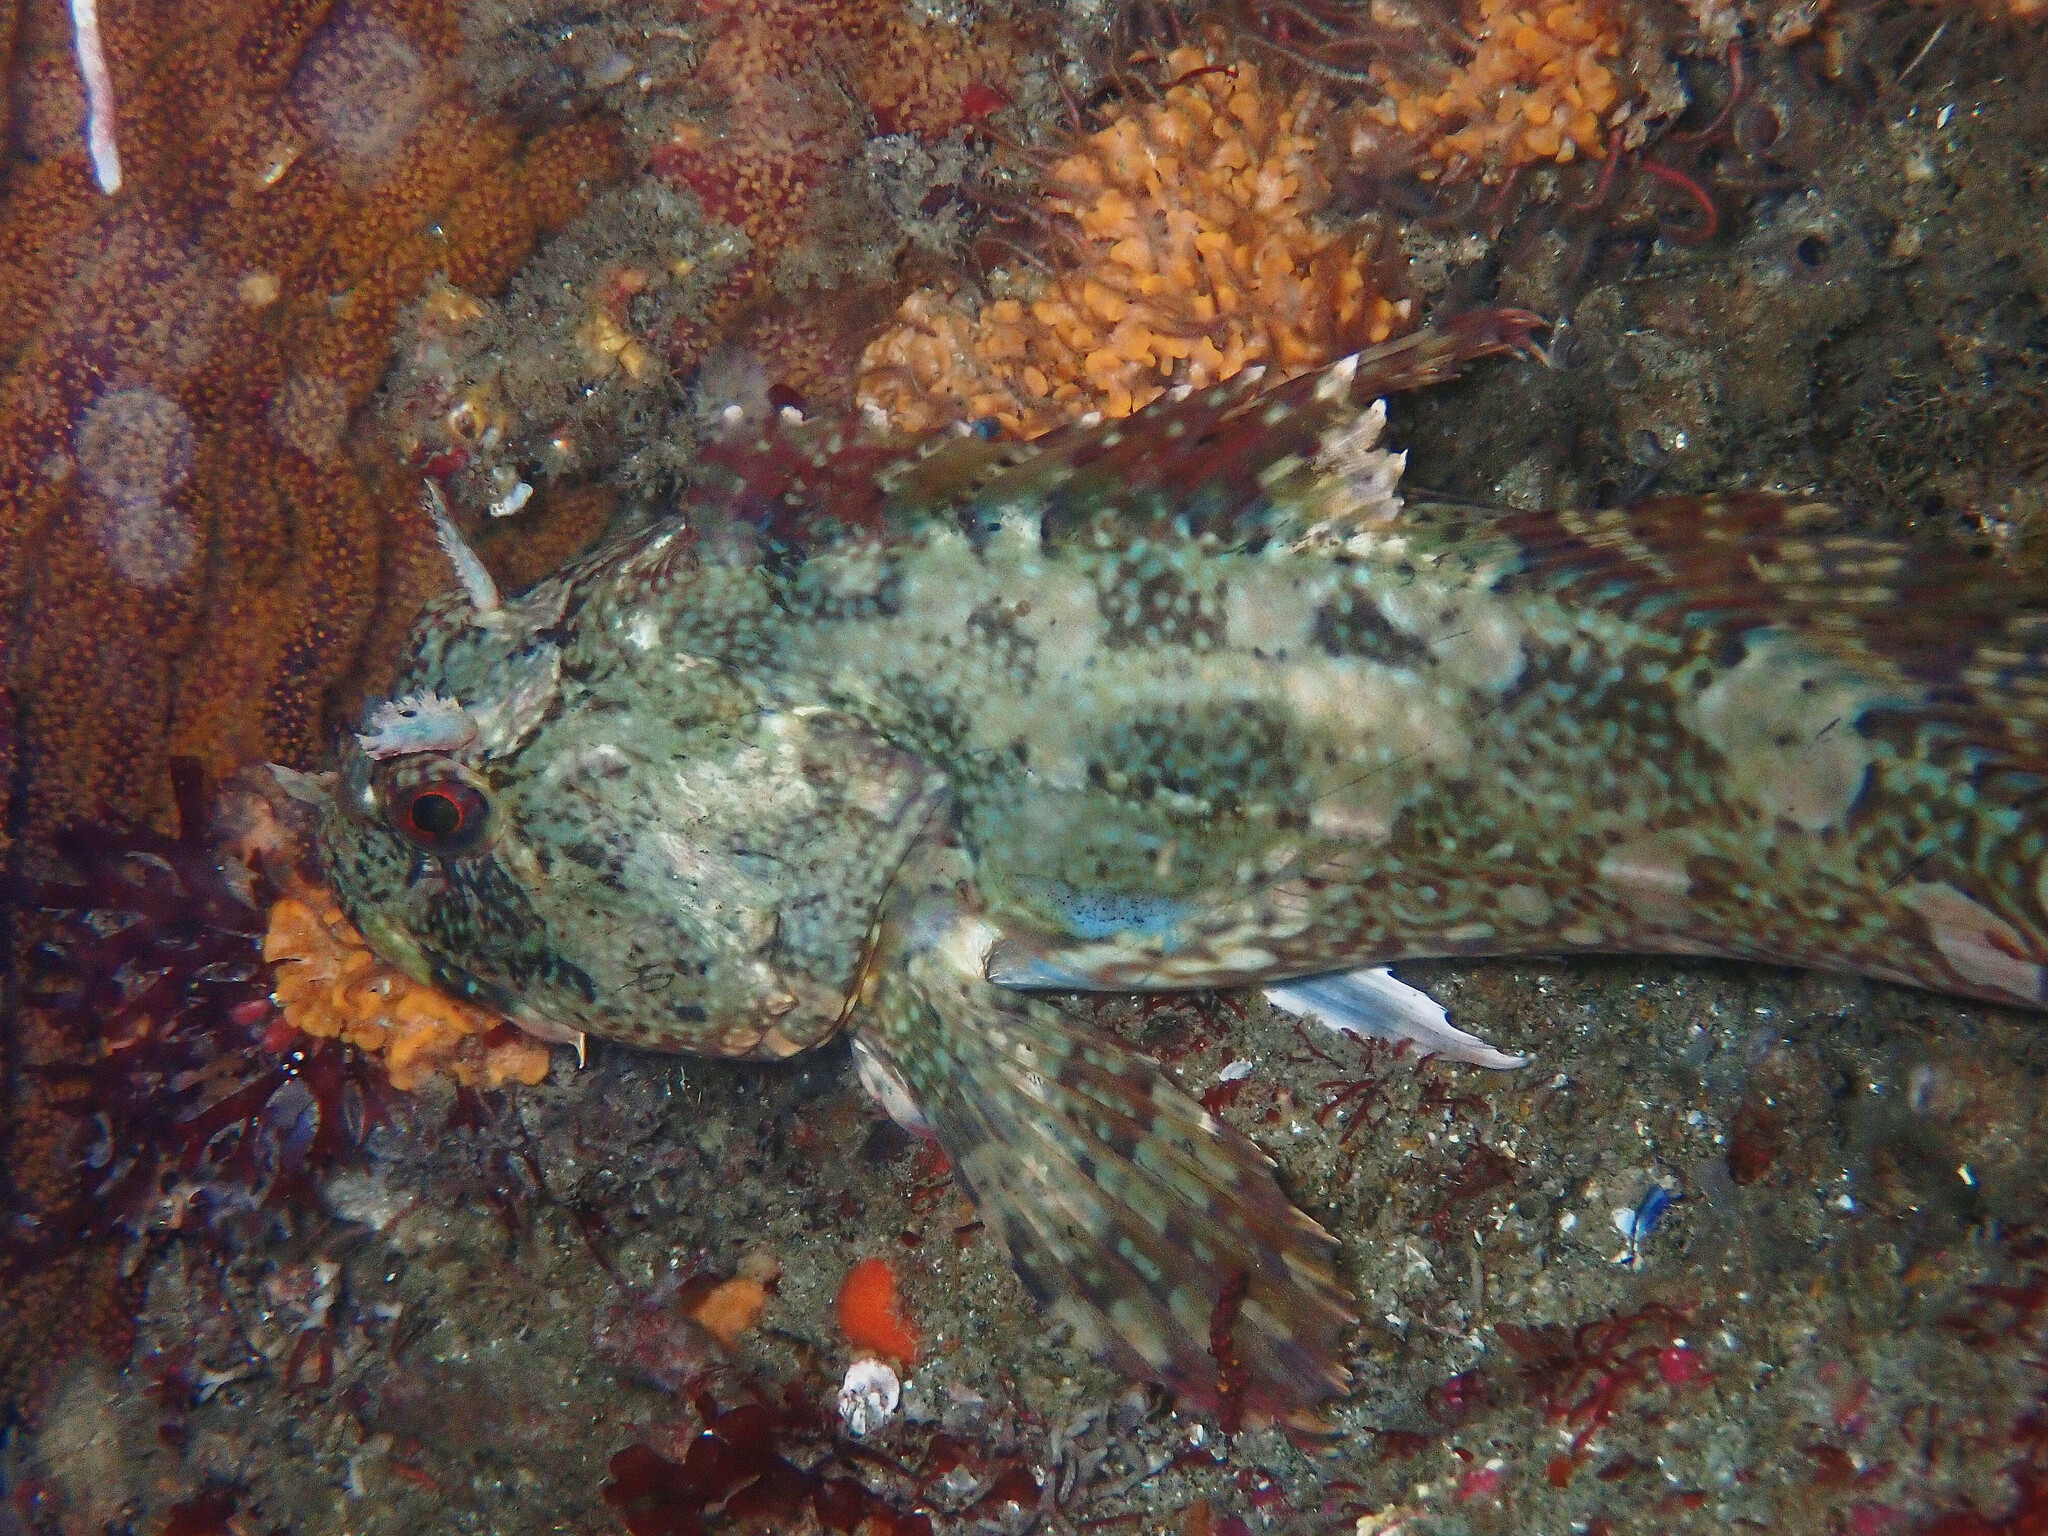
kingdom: Animalia
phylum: Chordata
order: Scorpaeniformes
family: Cottidae
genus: Scorpaenichthys
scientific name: Scorpaenichthys marmoratus
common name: Cabezon
